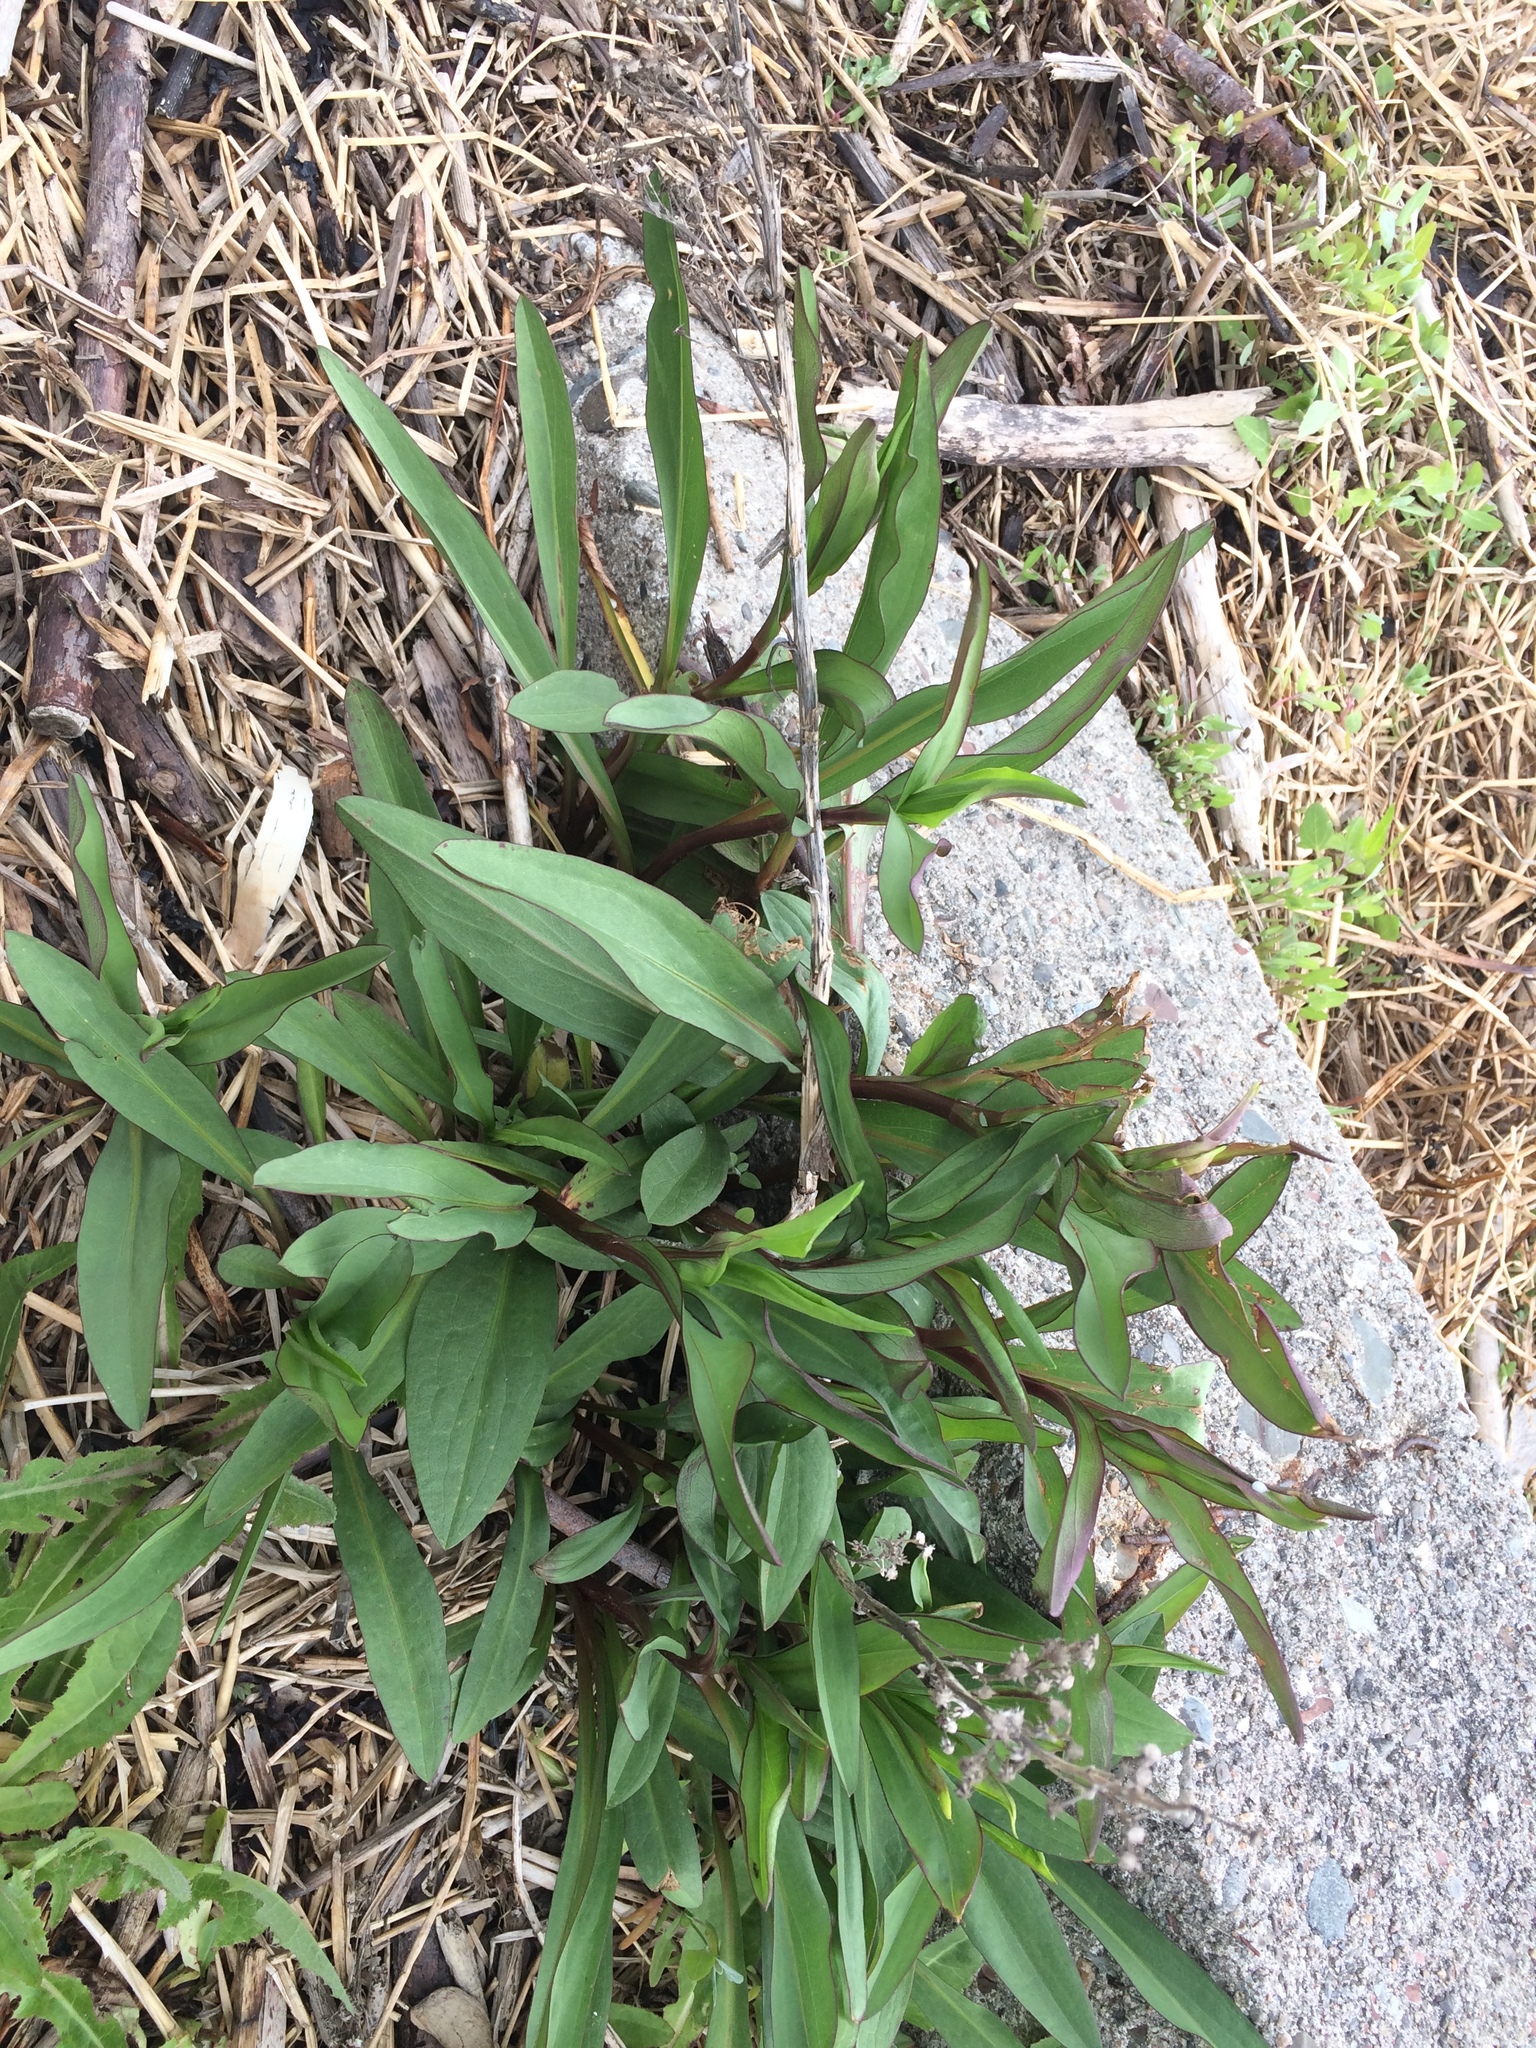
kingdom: Plantae
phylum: Tracheophyta
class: Magnoliopsida
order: Asterales
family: Asteraceae
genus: Solidago
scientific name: Solidago sempervirens
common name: Salt-marsh goldenrod
